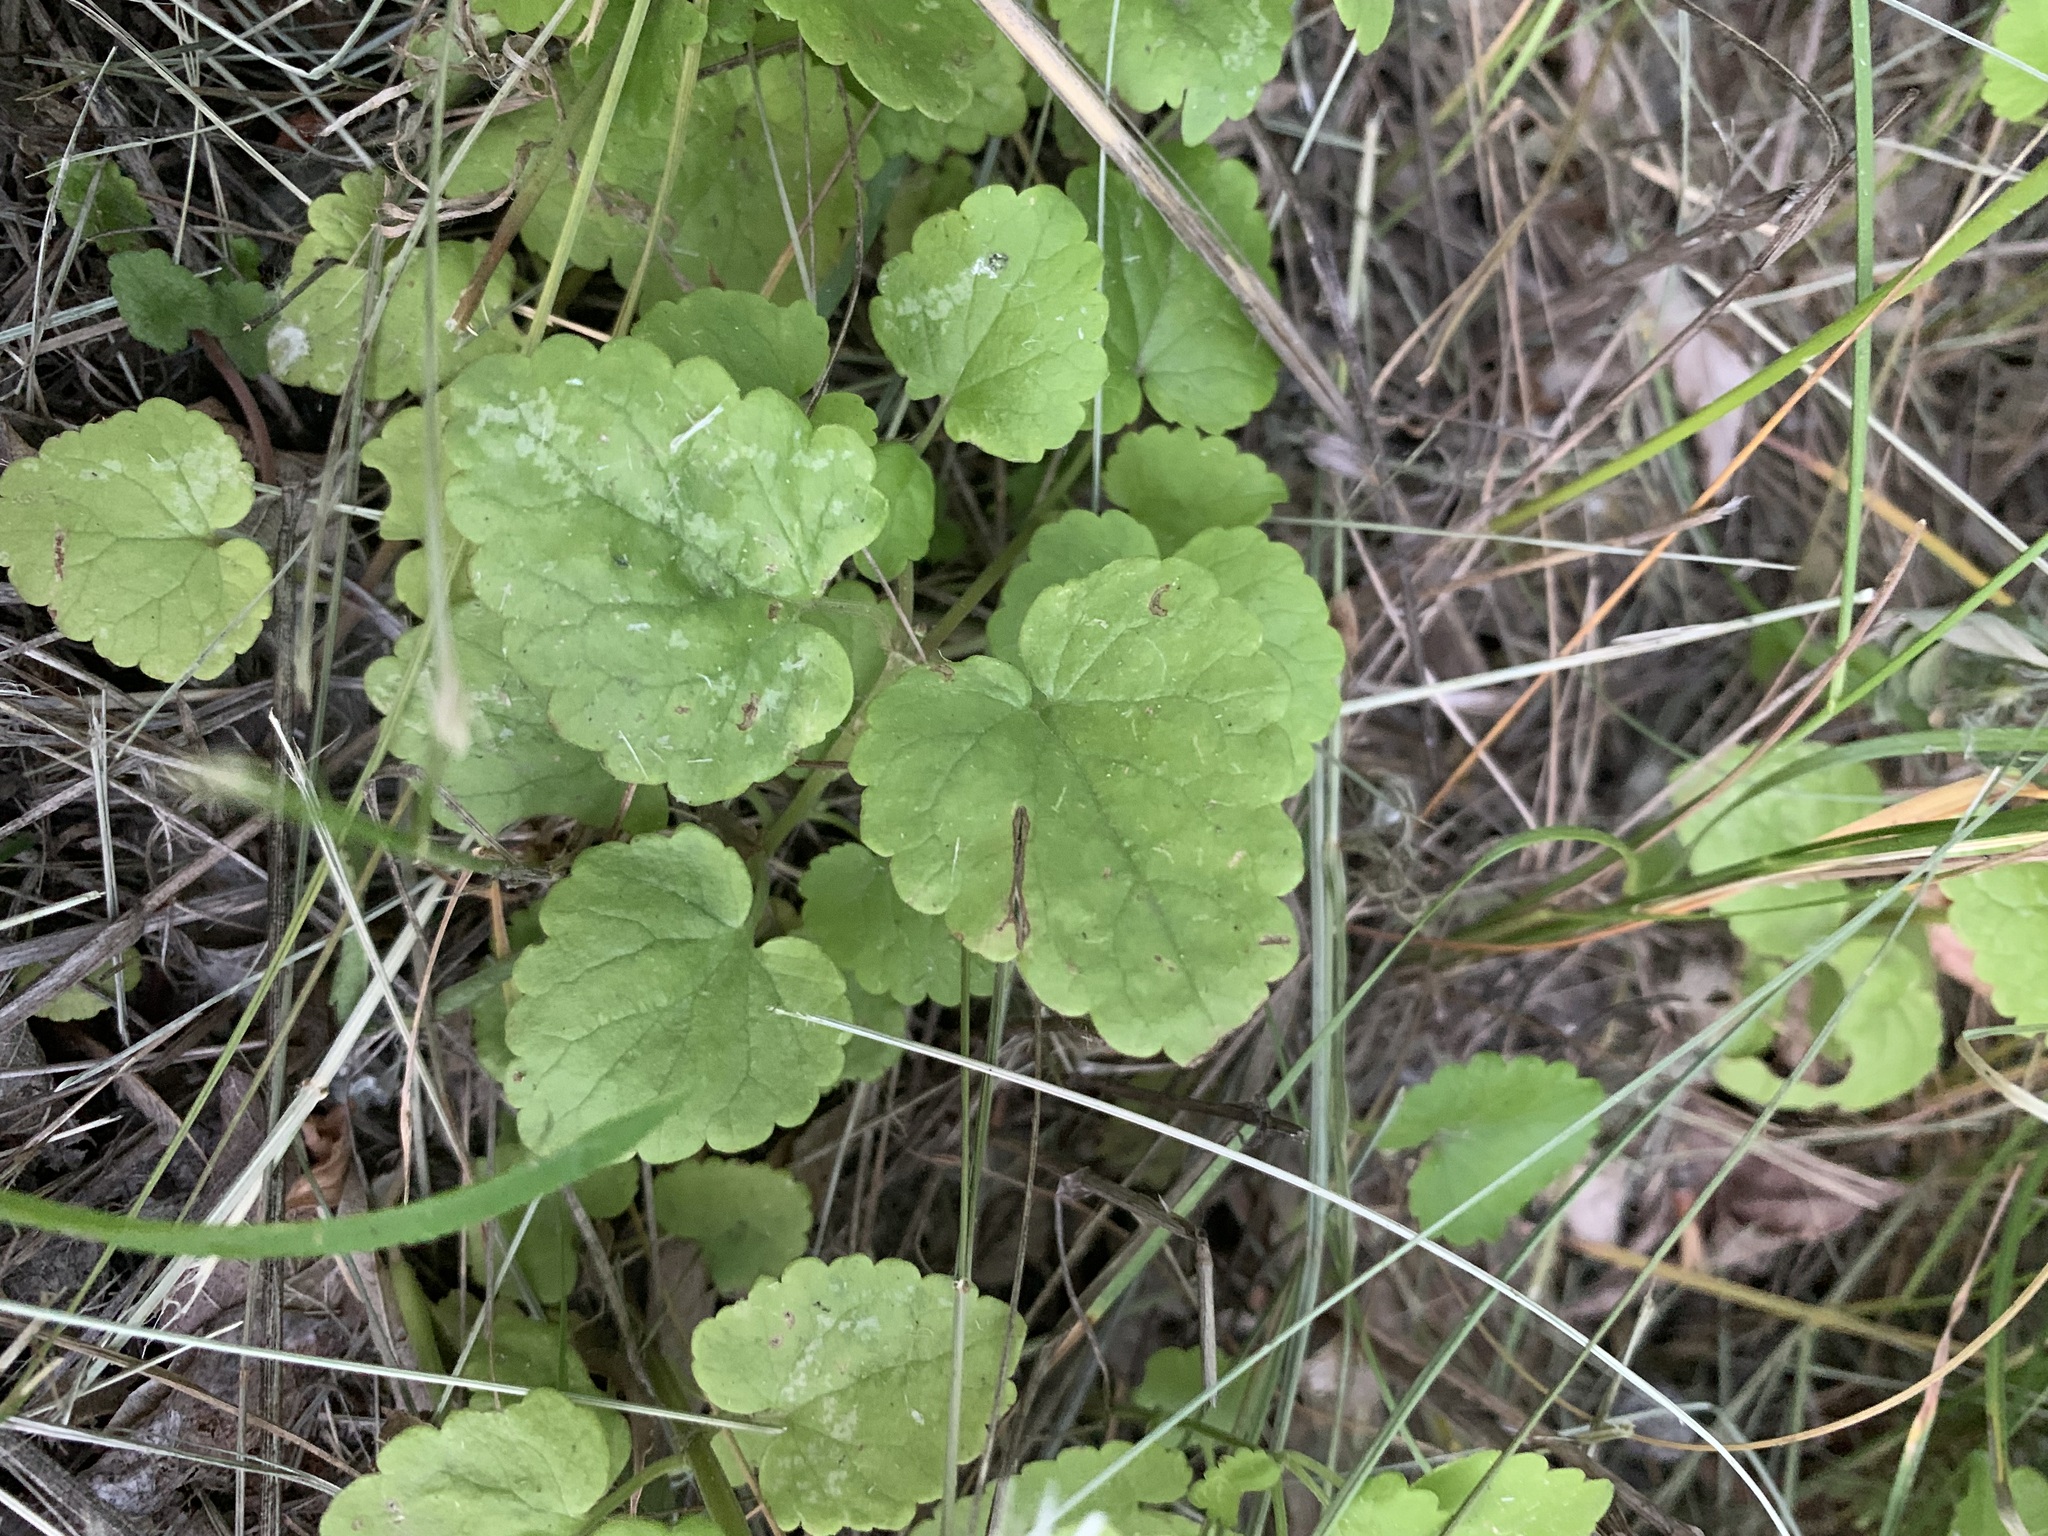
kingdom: Plantae
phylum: Tracheophyta
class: Magnoliopsida
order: Lamiales
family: Lamiaceae
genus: Glechoma
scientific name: Glechoma hederacea
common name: Ground ivy
